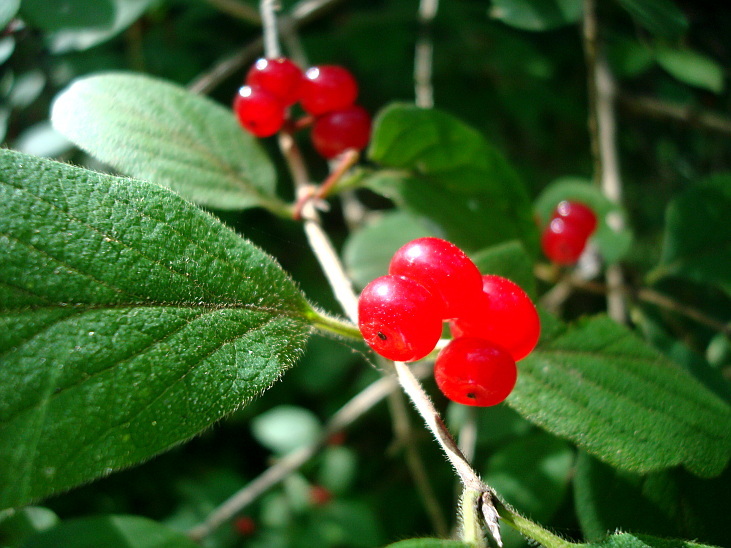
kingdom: Plantae
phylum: Tracheophyta
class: Magnoliopsida
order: Dipsacales
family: Caprifoliaceae
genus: Lonicera
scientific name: Lonicera xylosteum
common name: Fly honeysuckle
